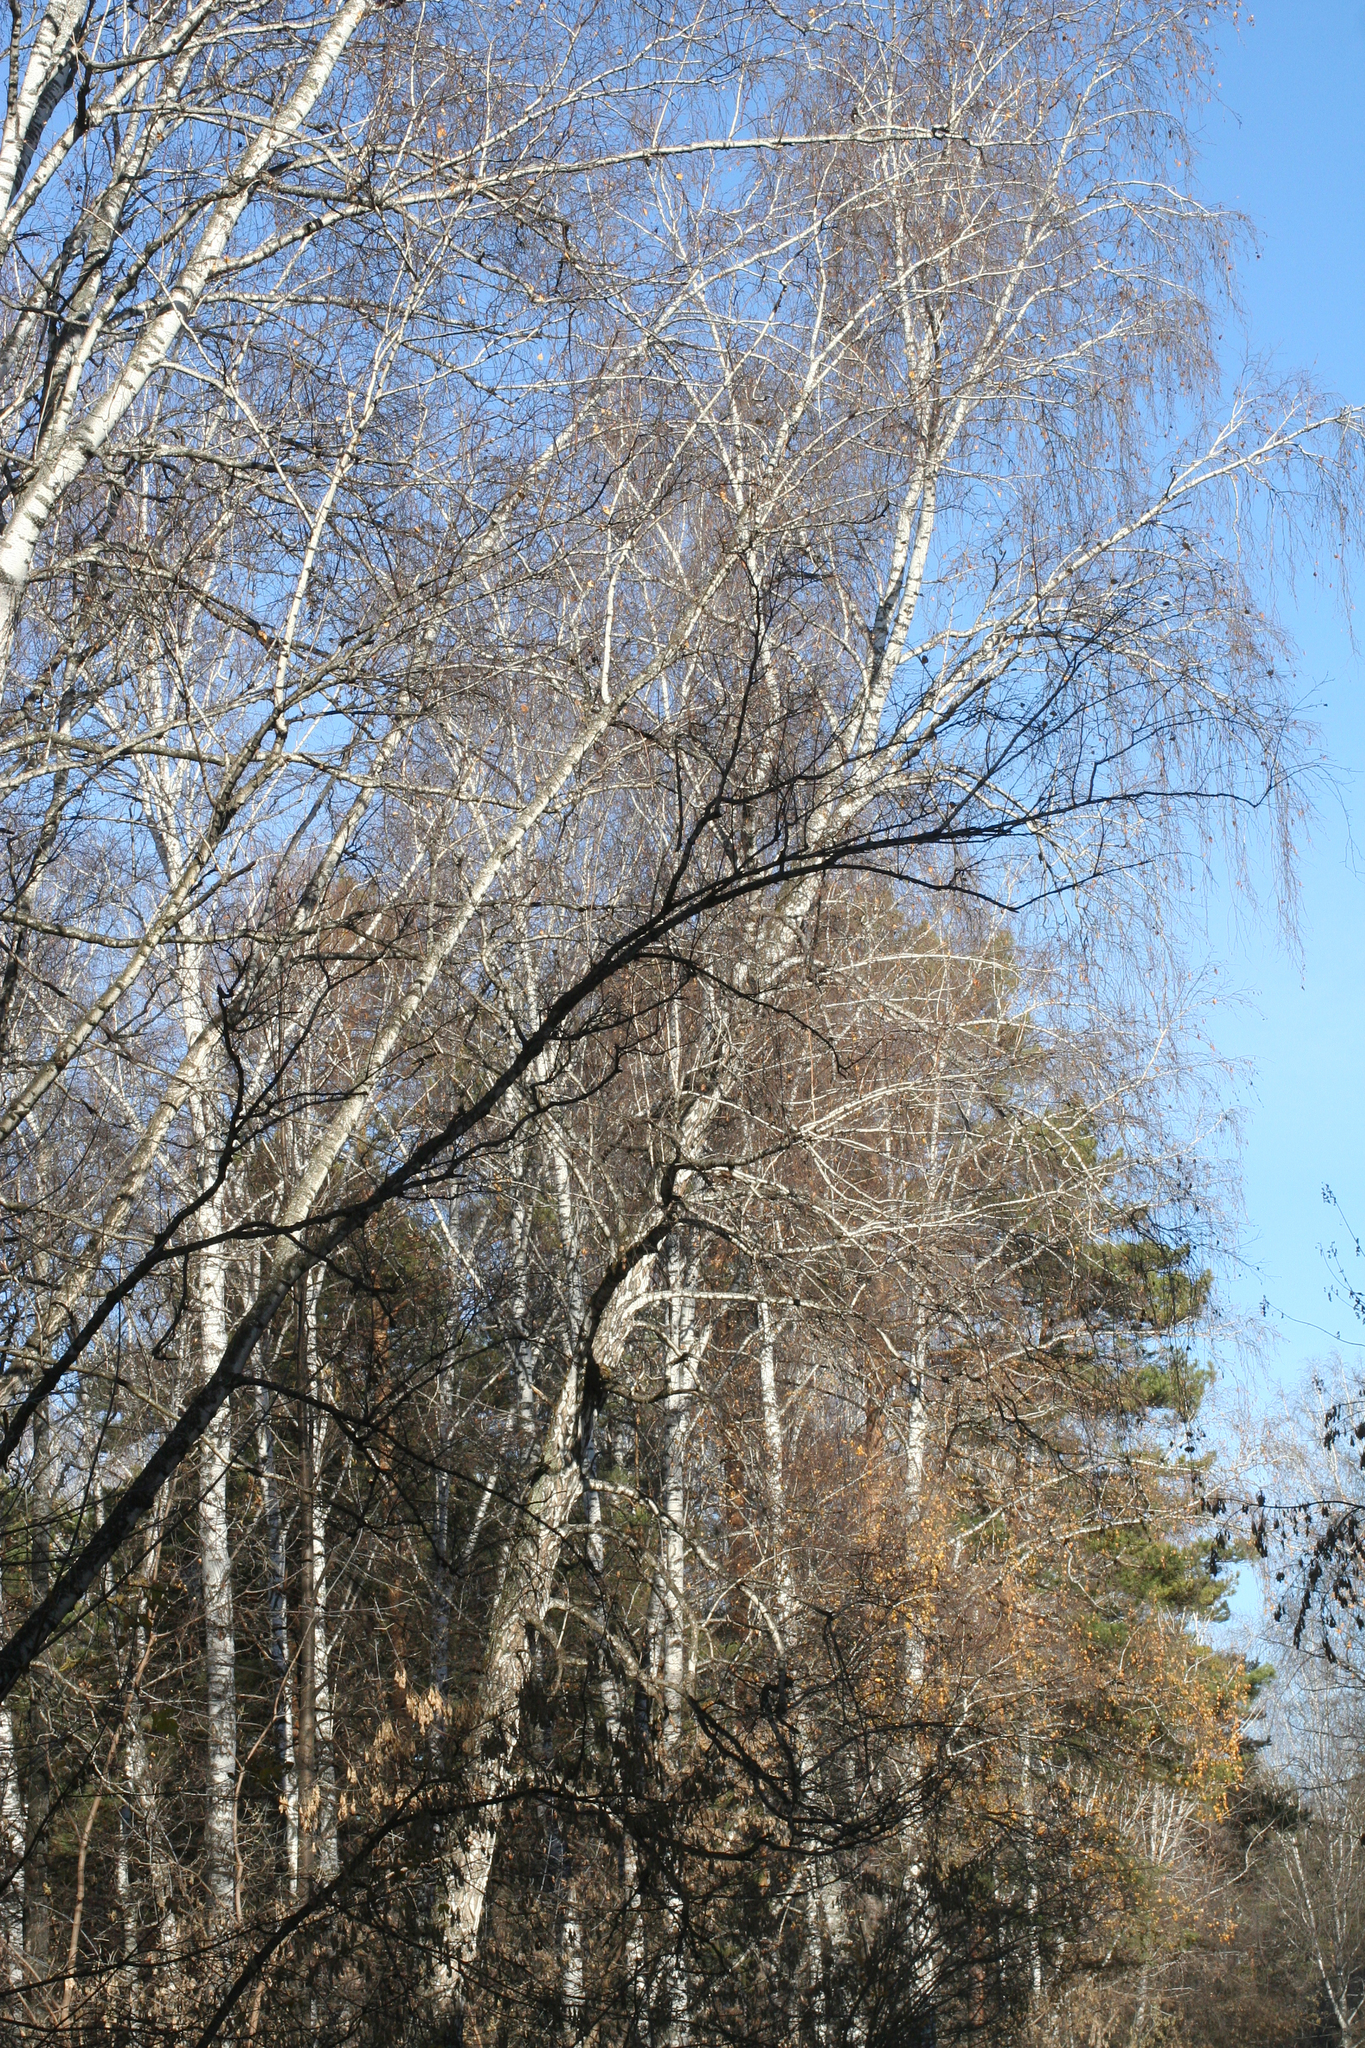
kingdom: Plantae
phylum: Tracheophyta
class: Magnoliopsida
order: Fagales
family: Betulaceae
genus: Betula
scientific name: Betula pendula
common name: Silver birch
